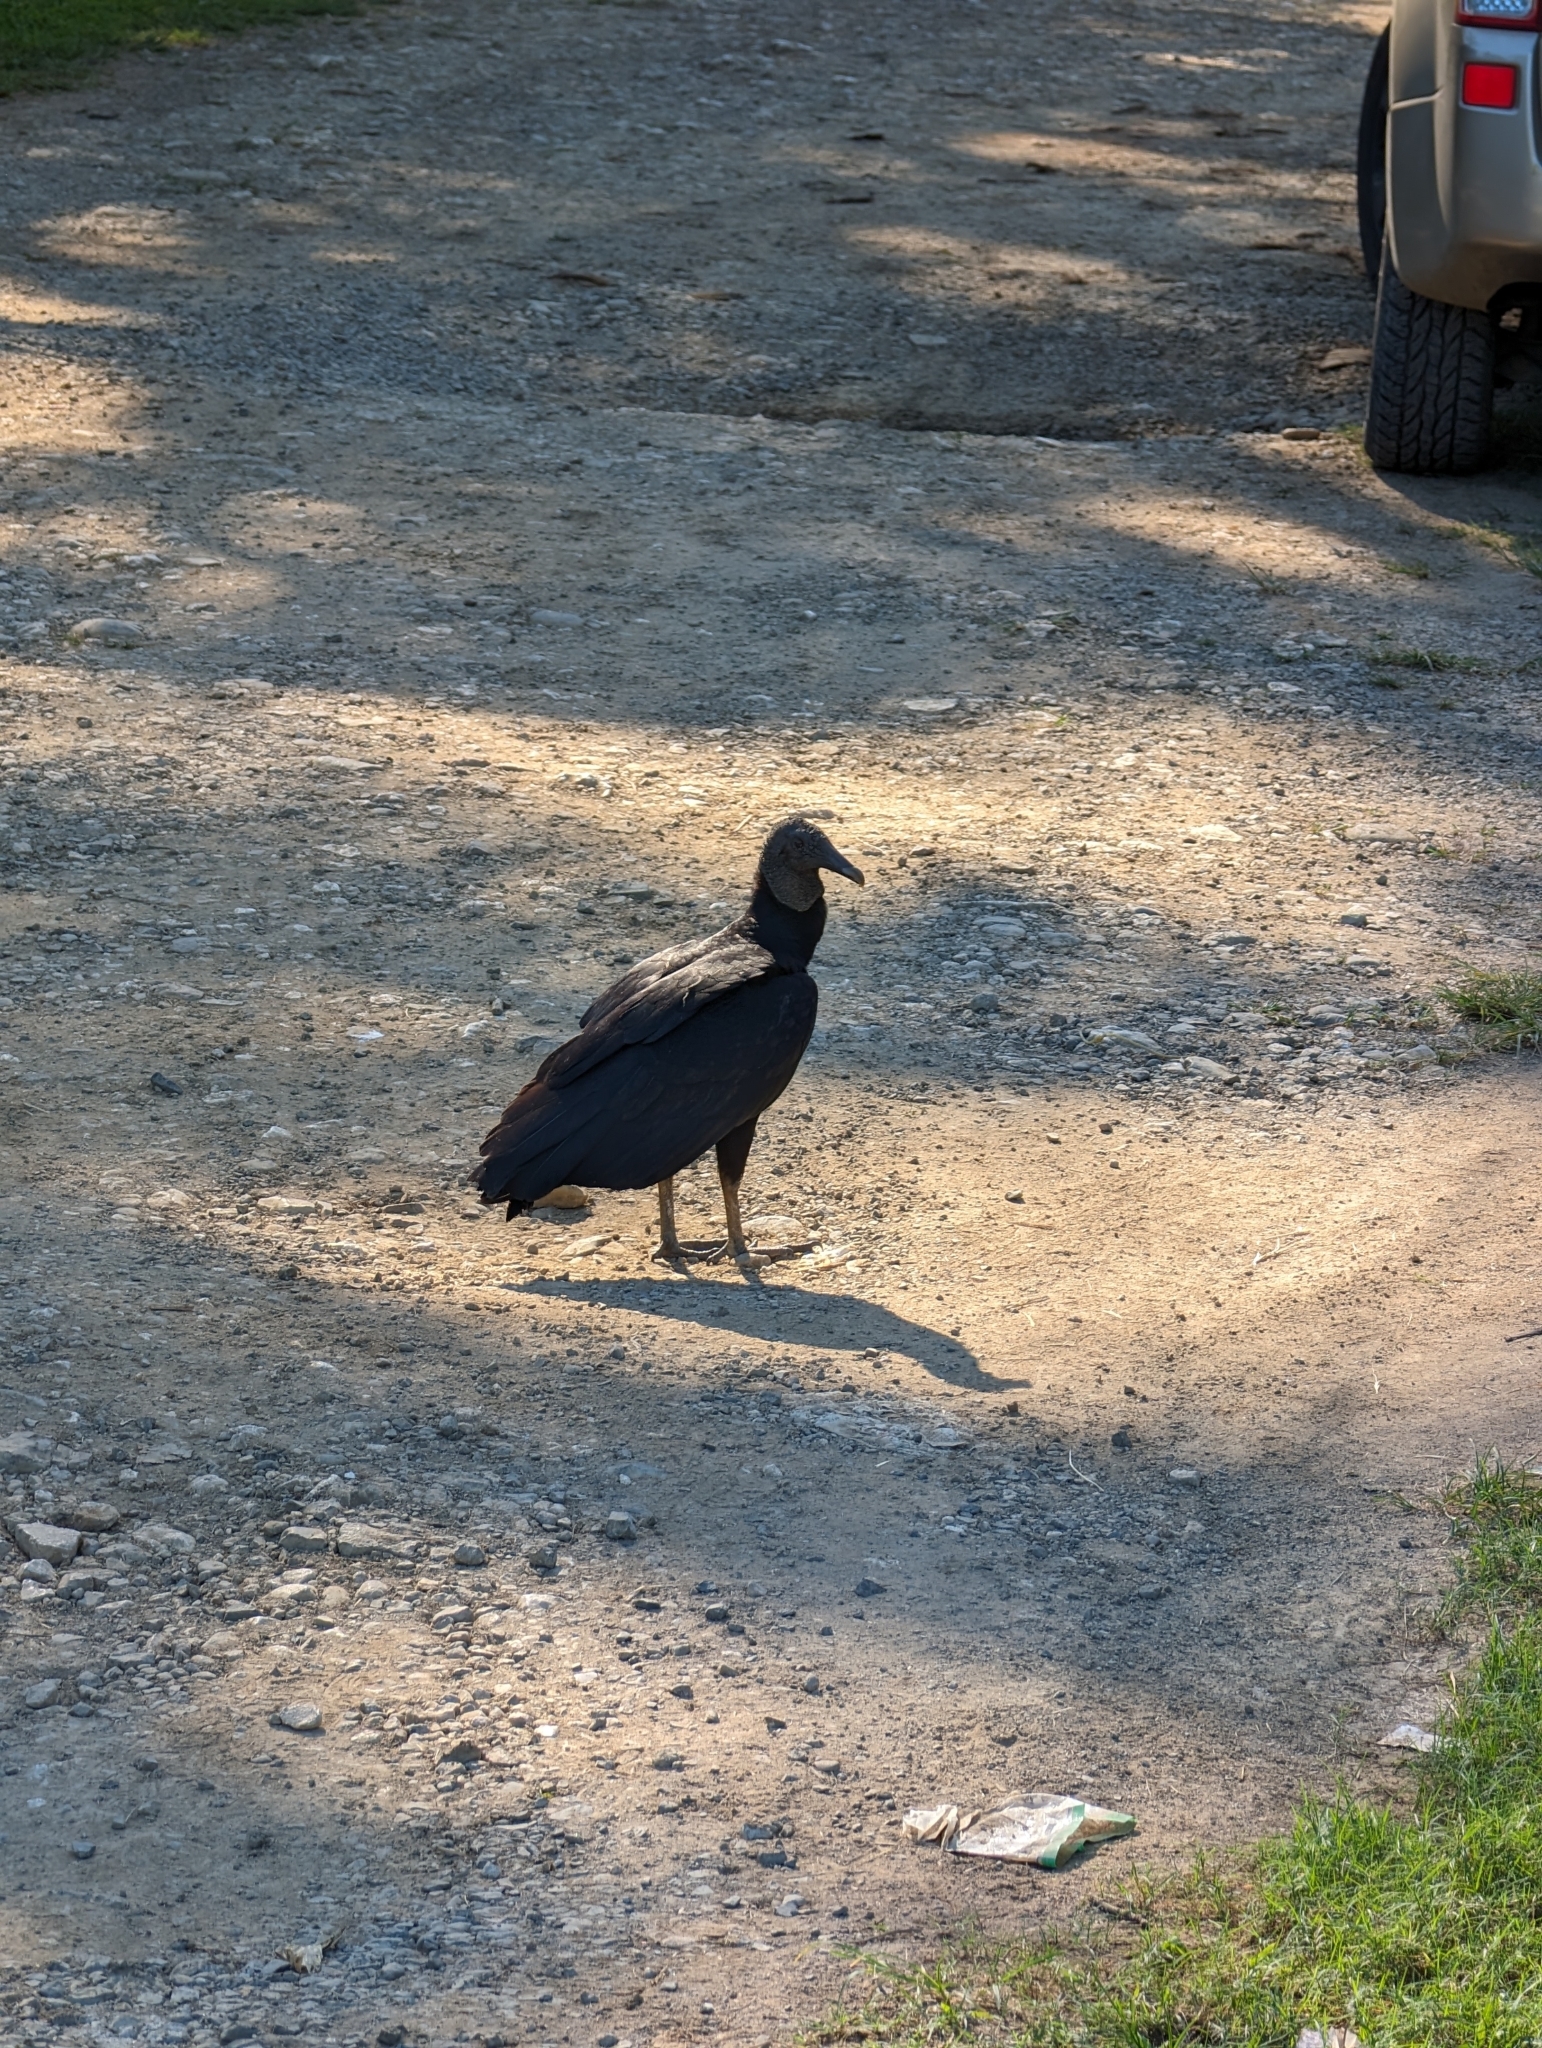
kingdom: Animalia
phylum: Chordata
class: Aves
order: Accipitriformes
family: Cathartidae
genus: Coragyps
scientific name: Coragyps atratus
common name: Black vulture
